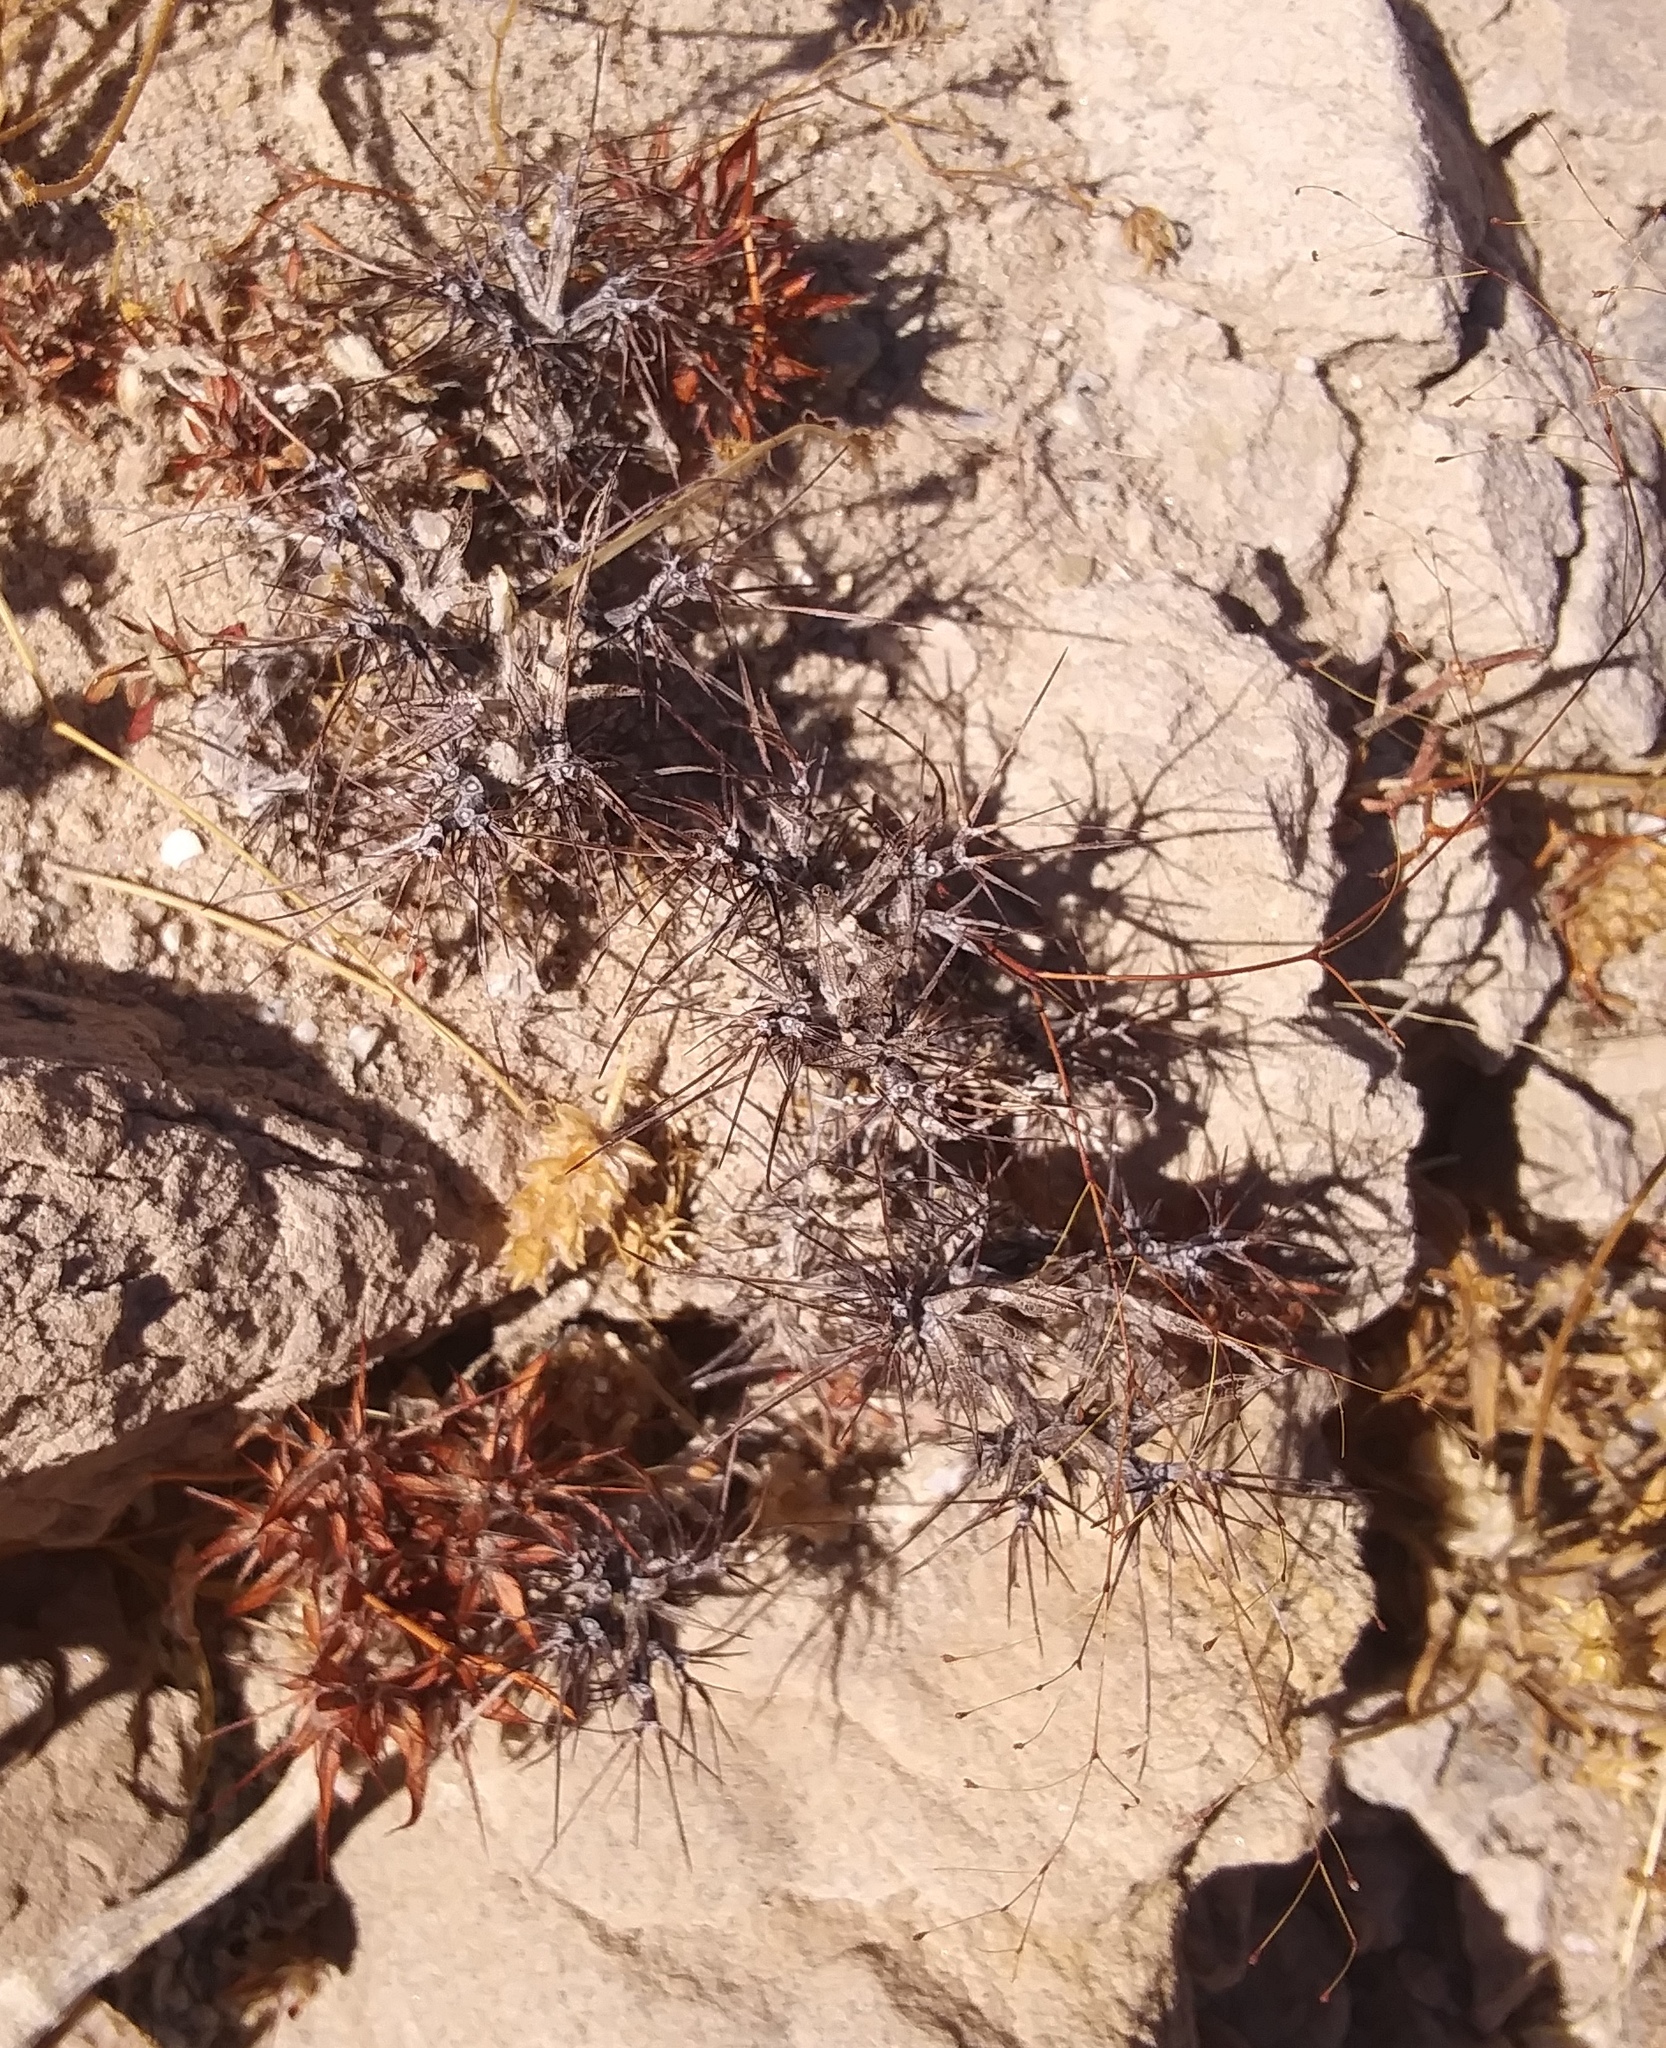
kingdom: Plantae
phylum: Tracheophyta
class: Magnoliopsida
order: Caryophyllales
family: Polygonaceae
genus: Chorizanthe
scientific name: Chorizanthe rigida
